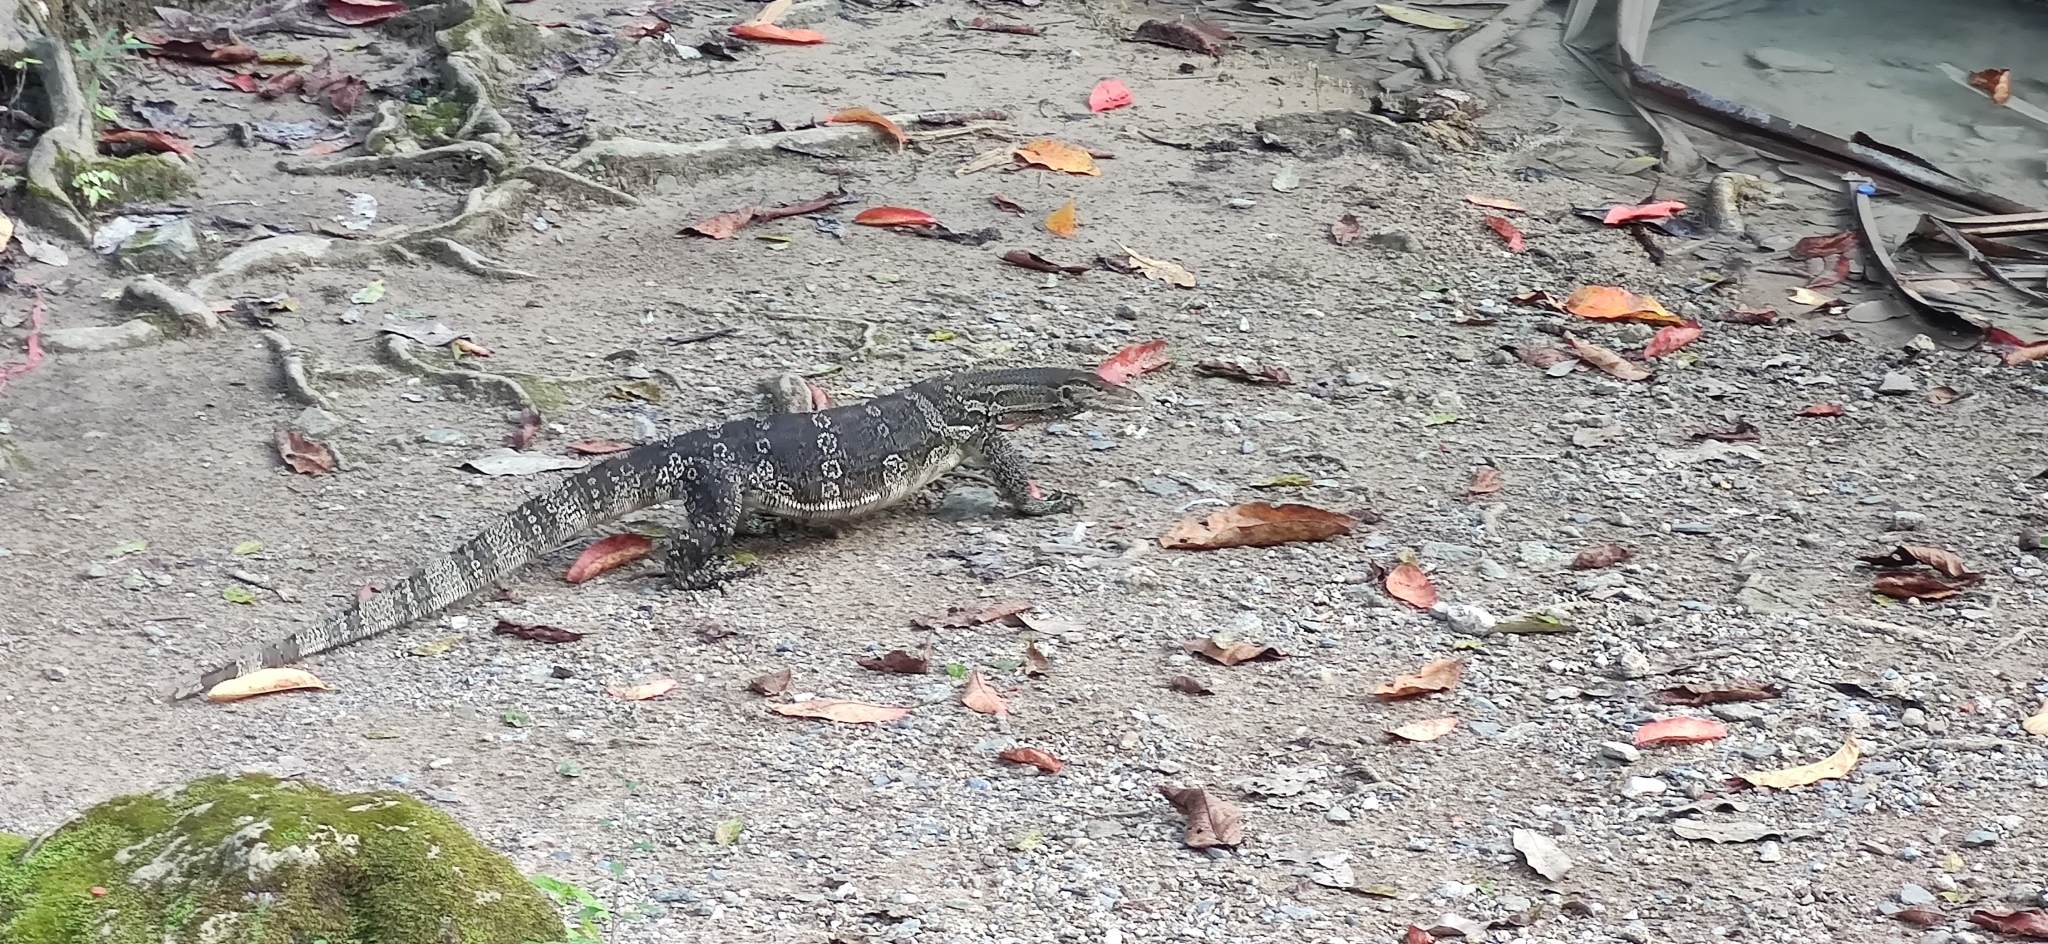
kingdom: Animalia
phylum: Chordata
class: Squamata
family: Varanidae
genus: Varanus
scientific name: Varanus salvator
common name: Common water monitor
